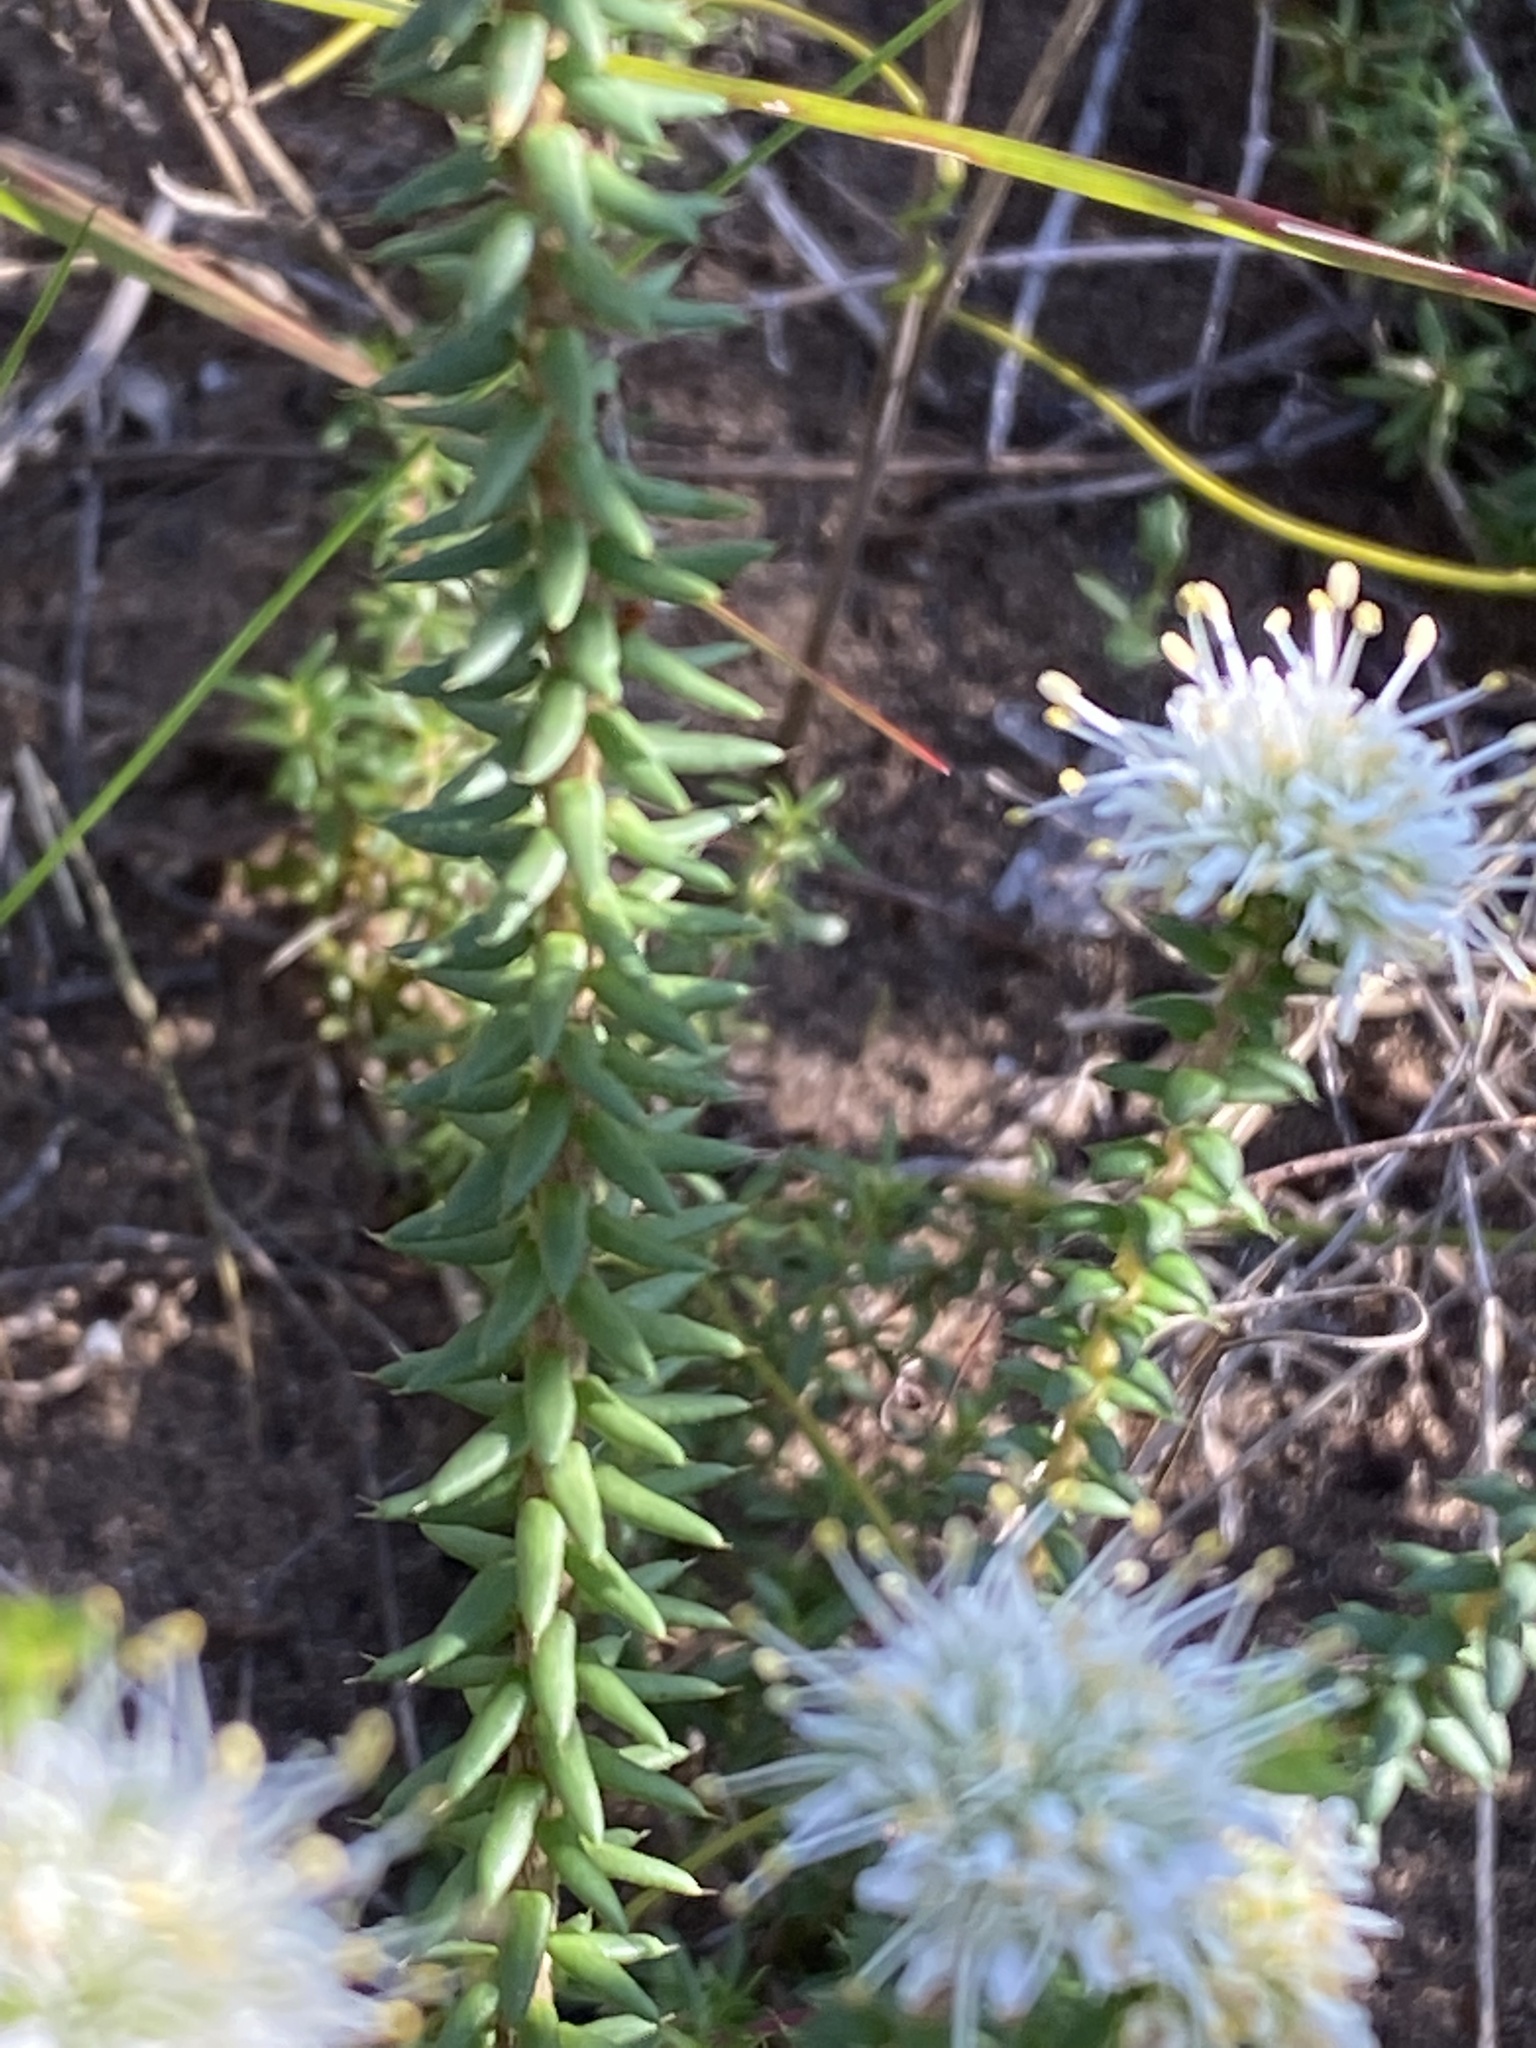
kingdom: Plantae
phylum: Tracheophyta
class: Magnoliopsida
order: Sapindales
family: Rutaceae
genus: Agathosma
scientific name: Agathosma apiculata
